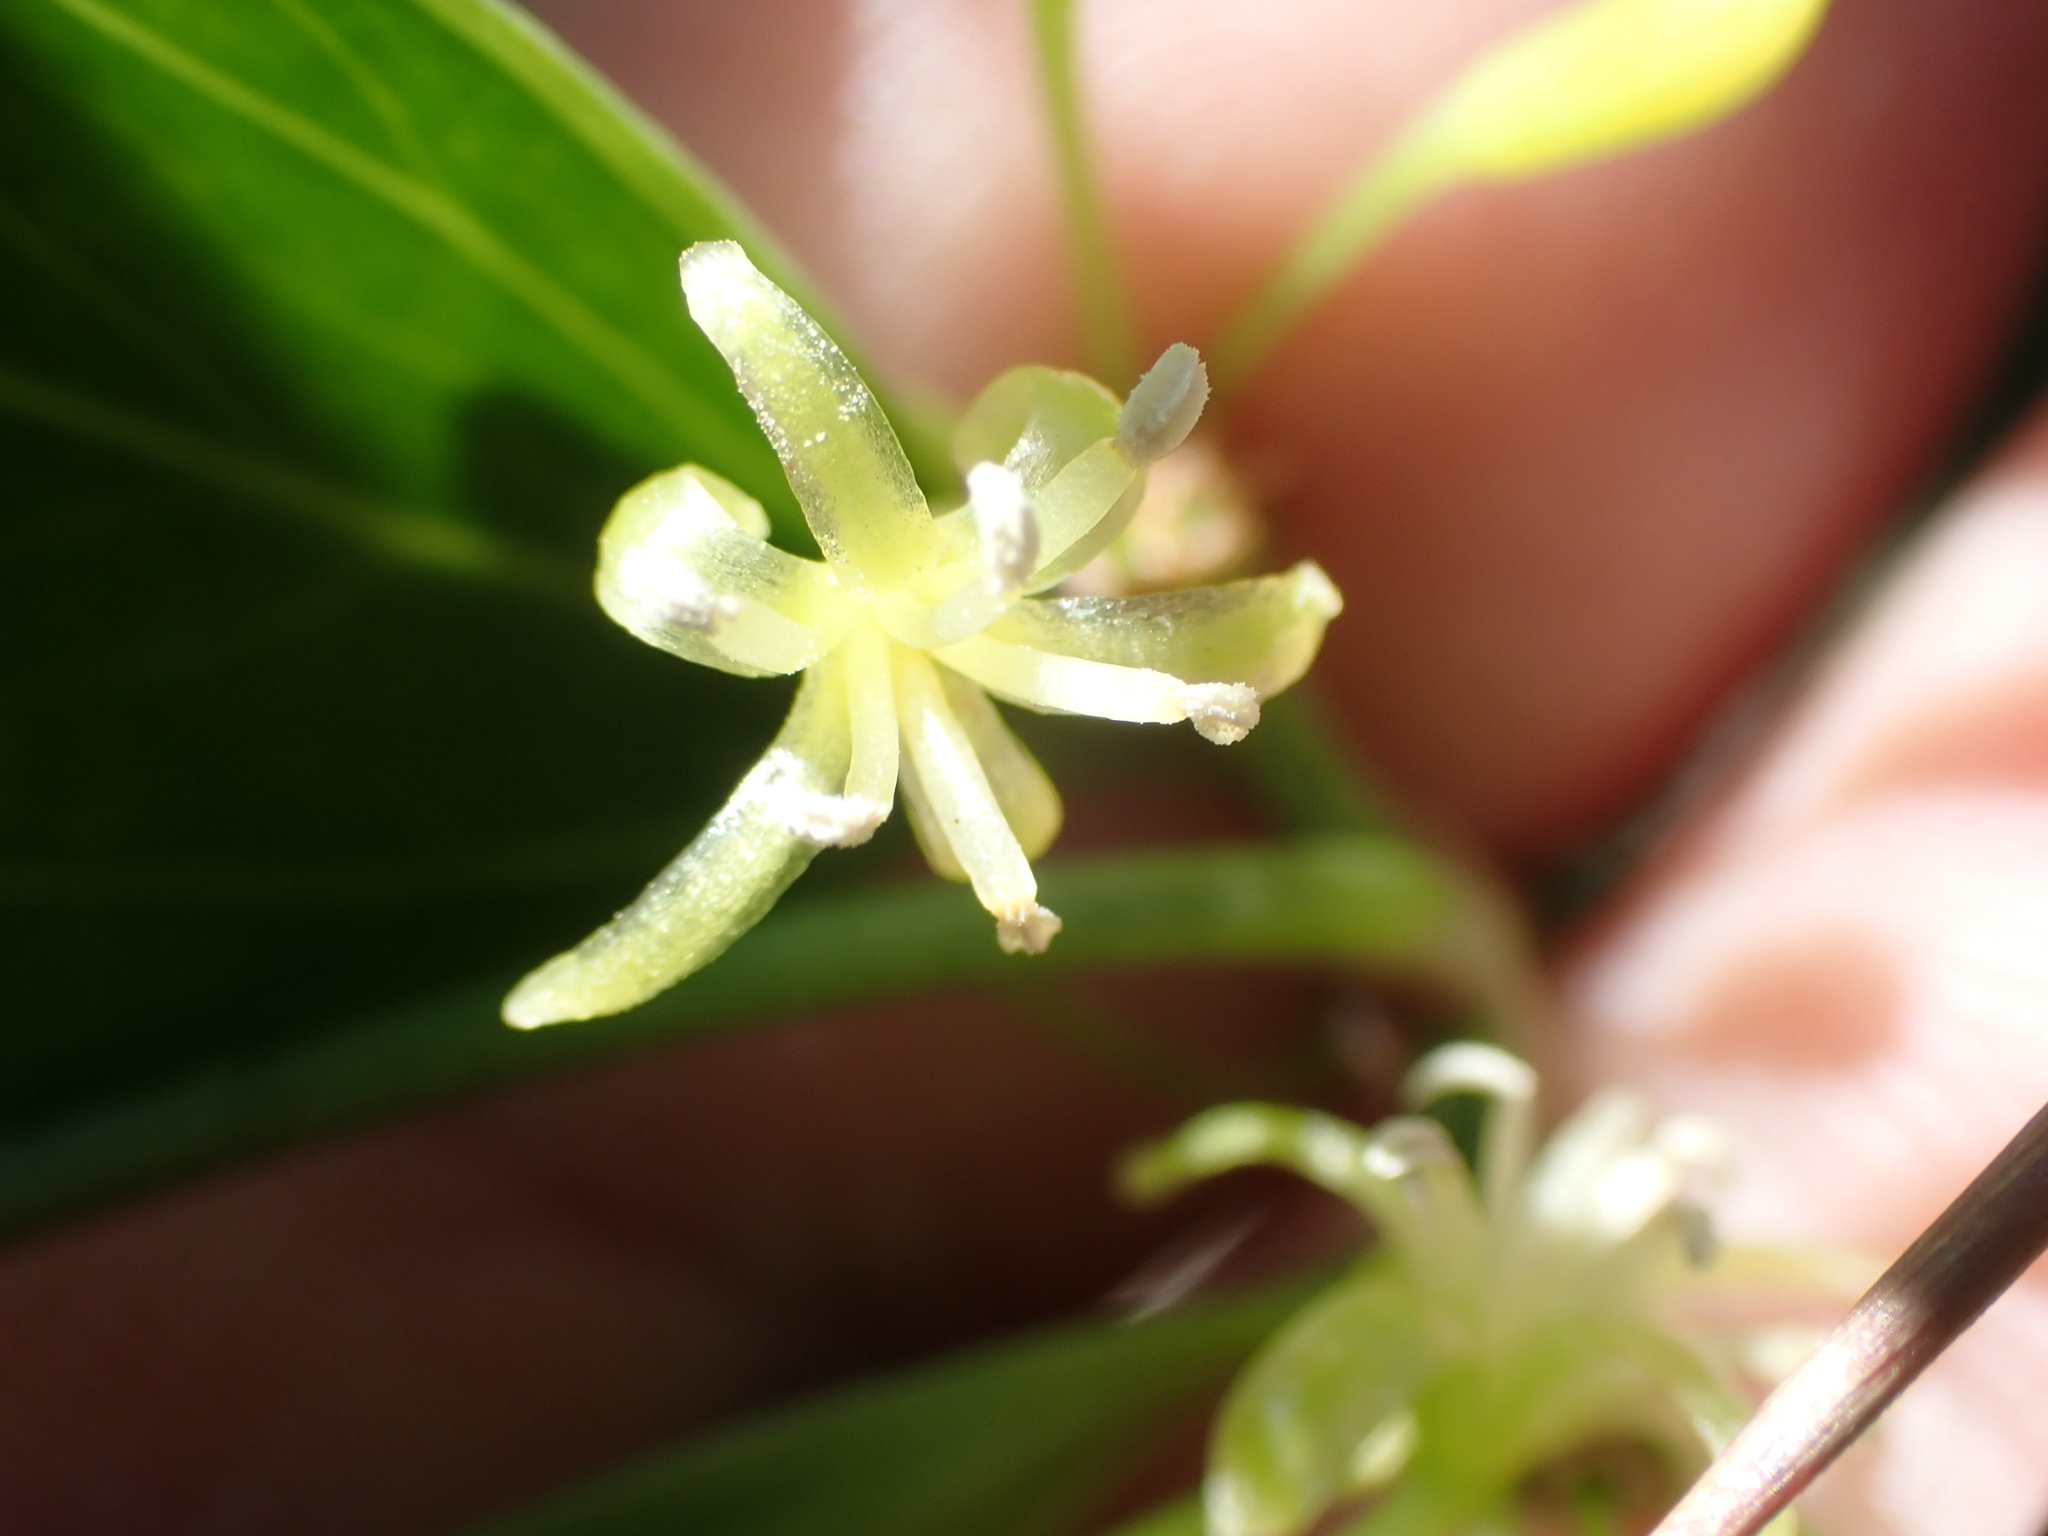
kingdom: Plantae
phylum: Tracheophyta
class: Liliopsida
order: Liliales
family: Smilacaceae
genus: Smilax
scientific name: Smilax auriculata
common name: Wild bamboo
